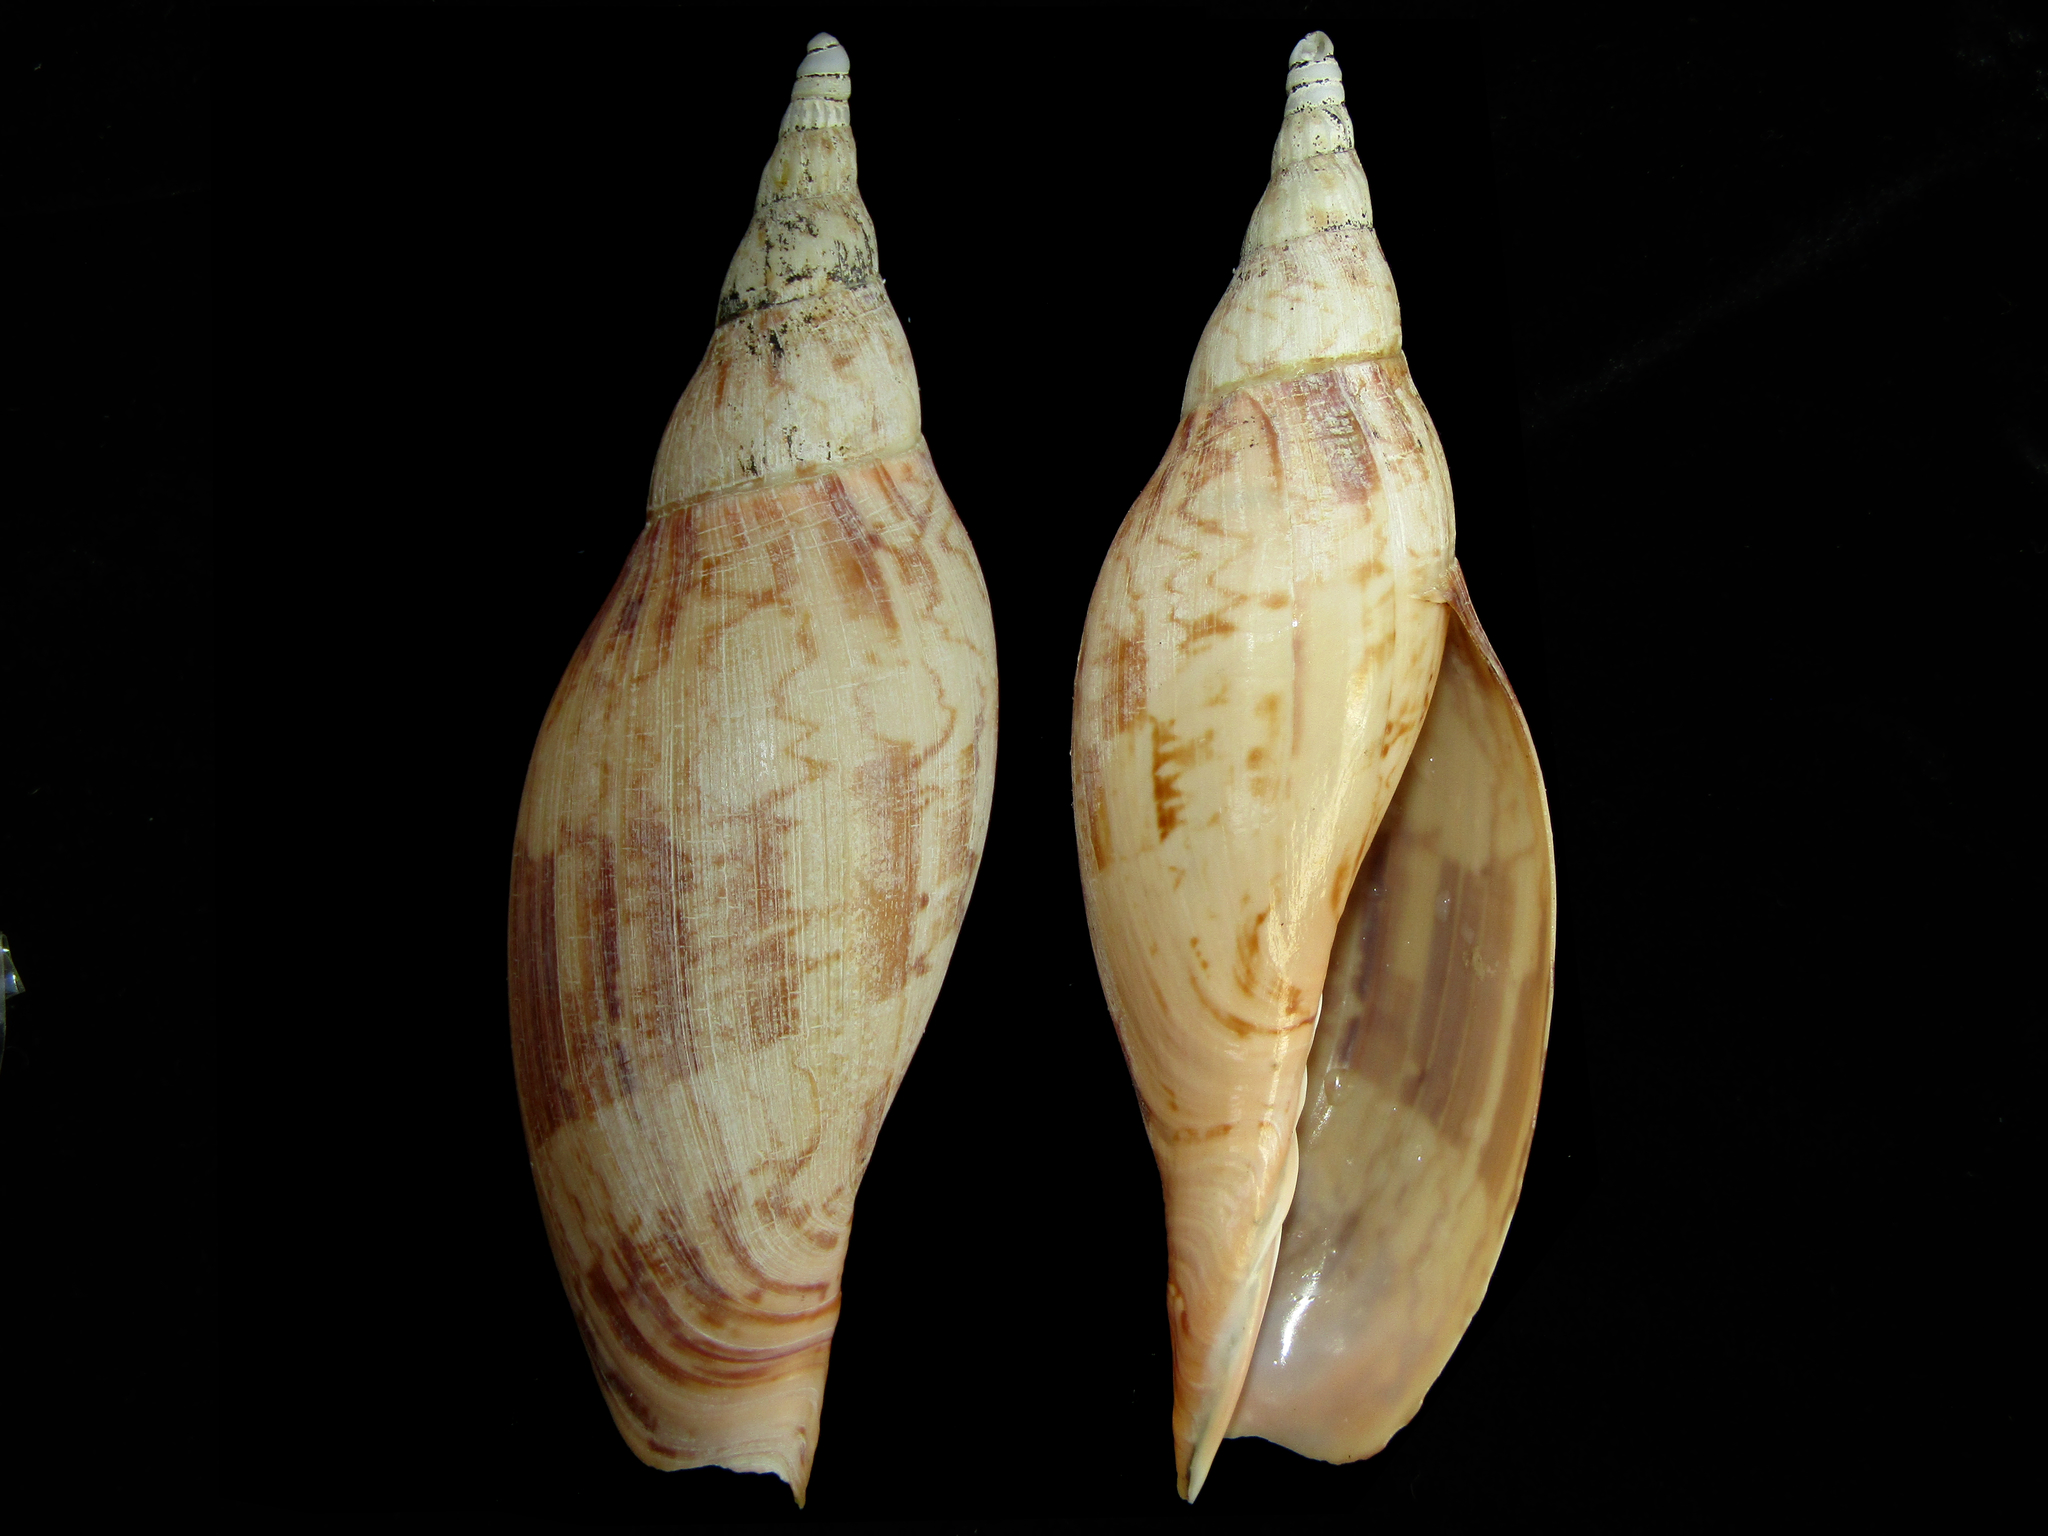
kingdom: Animalia
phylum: Mollusca
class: Gastropoda
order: Neogastropoda
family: Volutidae
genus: Alcithoe
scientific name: Alcithoe fissurata
